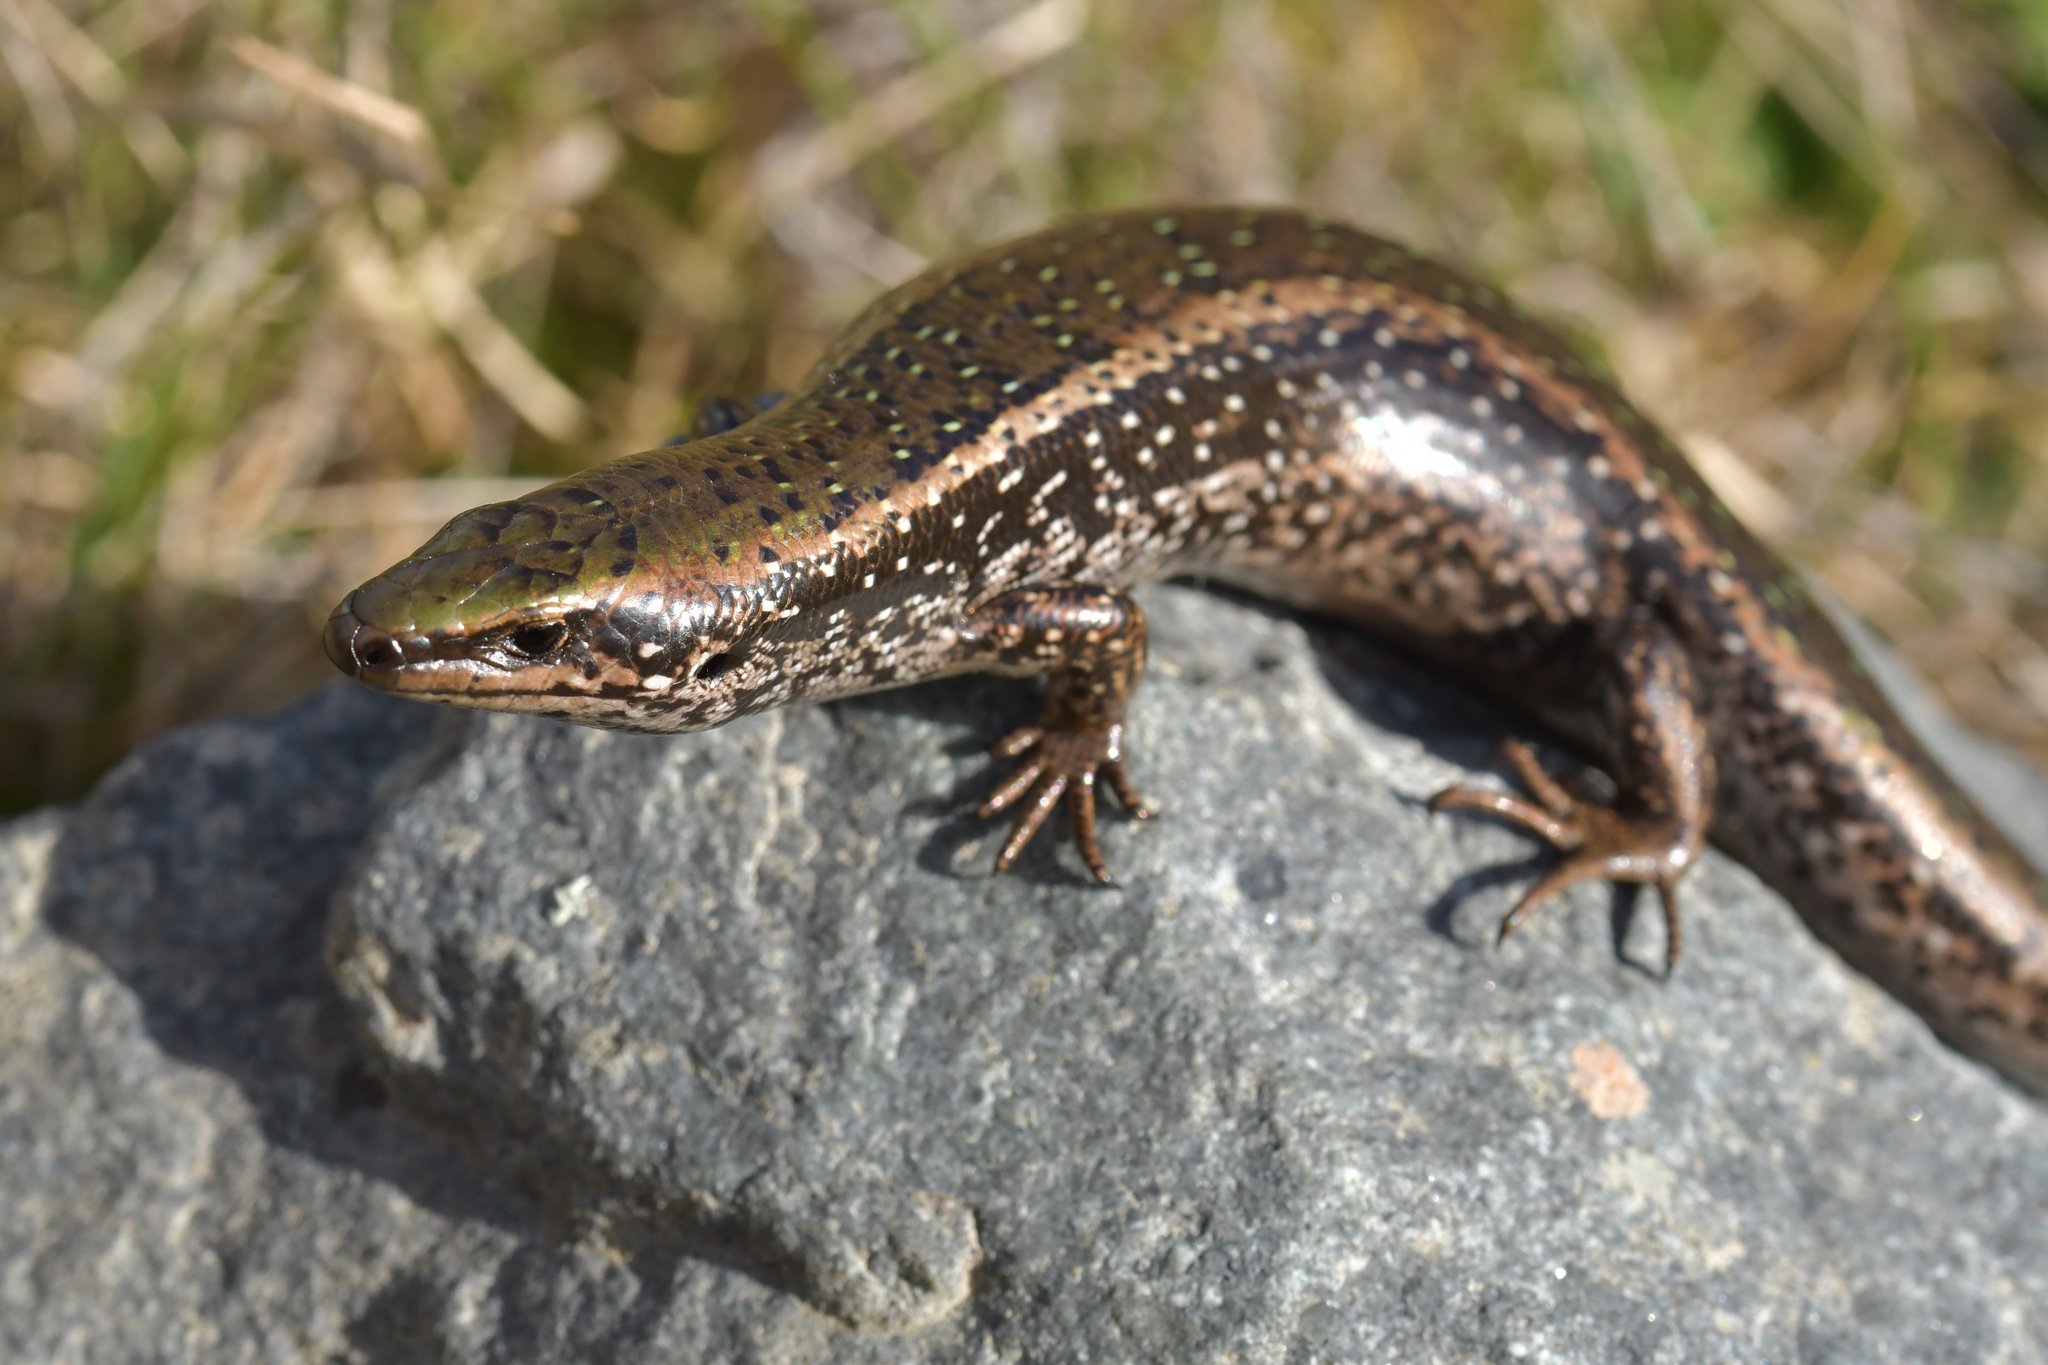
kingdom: Animalia
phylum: Chordata
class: Squamata
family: Scincidae
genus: Oligosoma
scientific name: Oligosoma chloronoton
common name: Green skink
